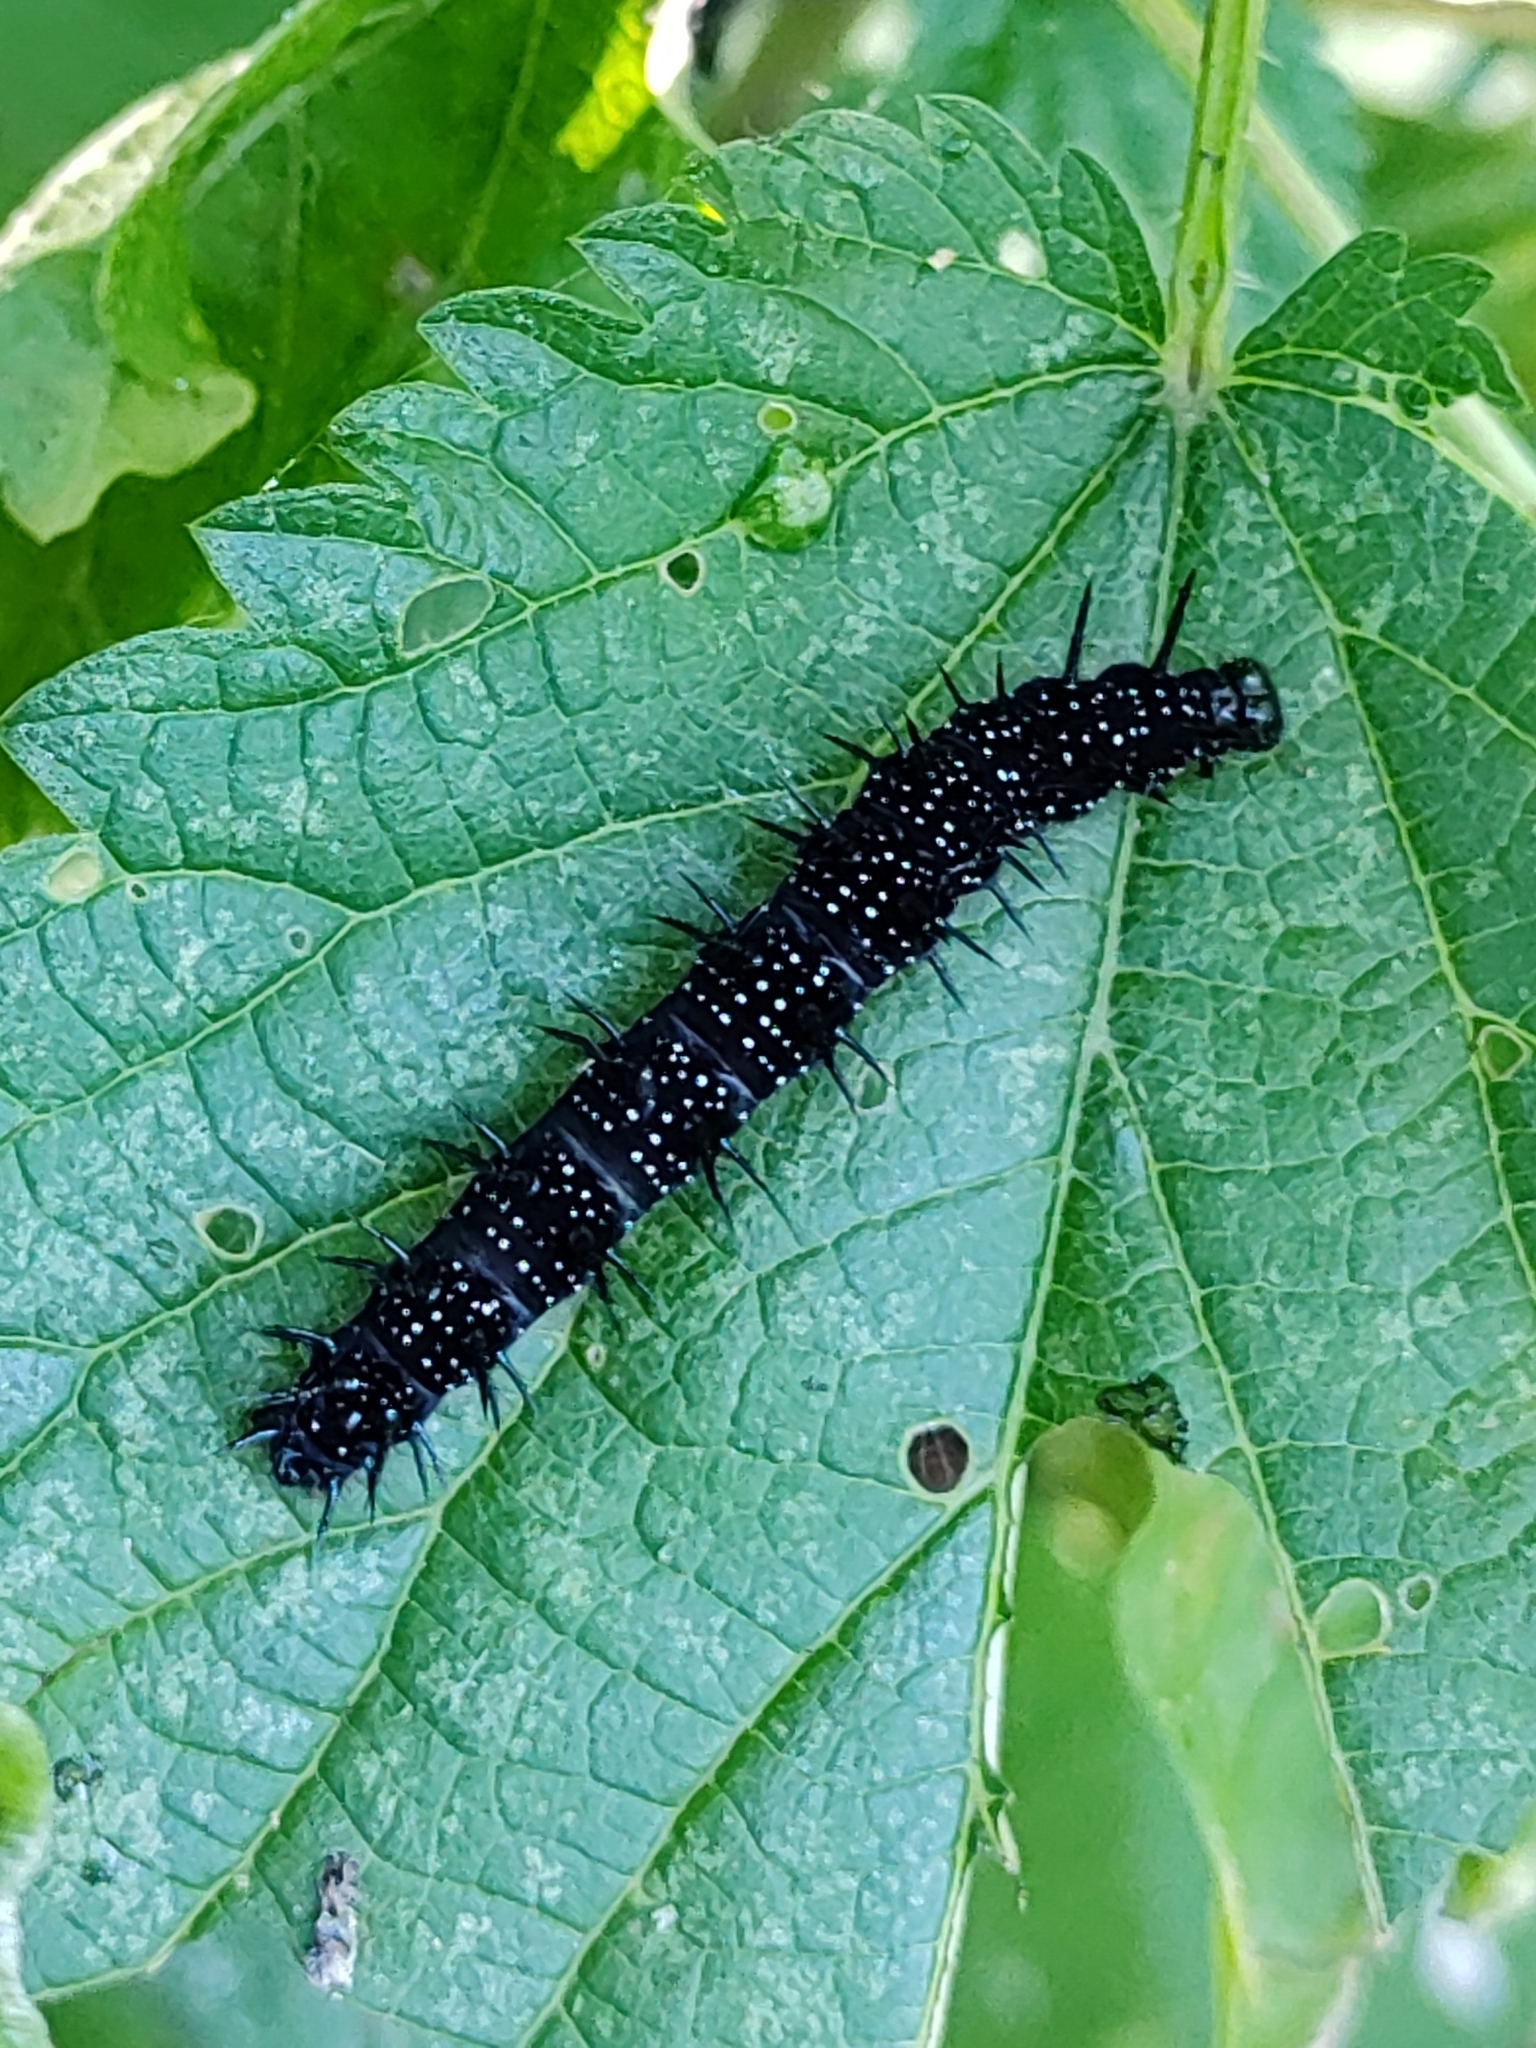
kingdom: Animalia
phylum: Arthropoda
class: Insecta
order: Lepidoptera
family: Nymphalidae
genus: Aglais
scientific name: Aglais io
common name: Peacock
